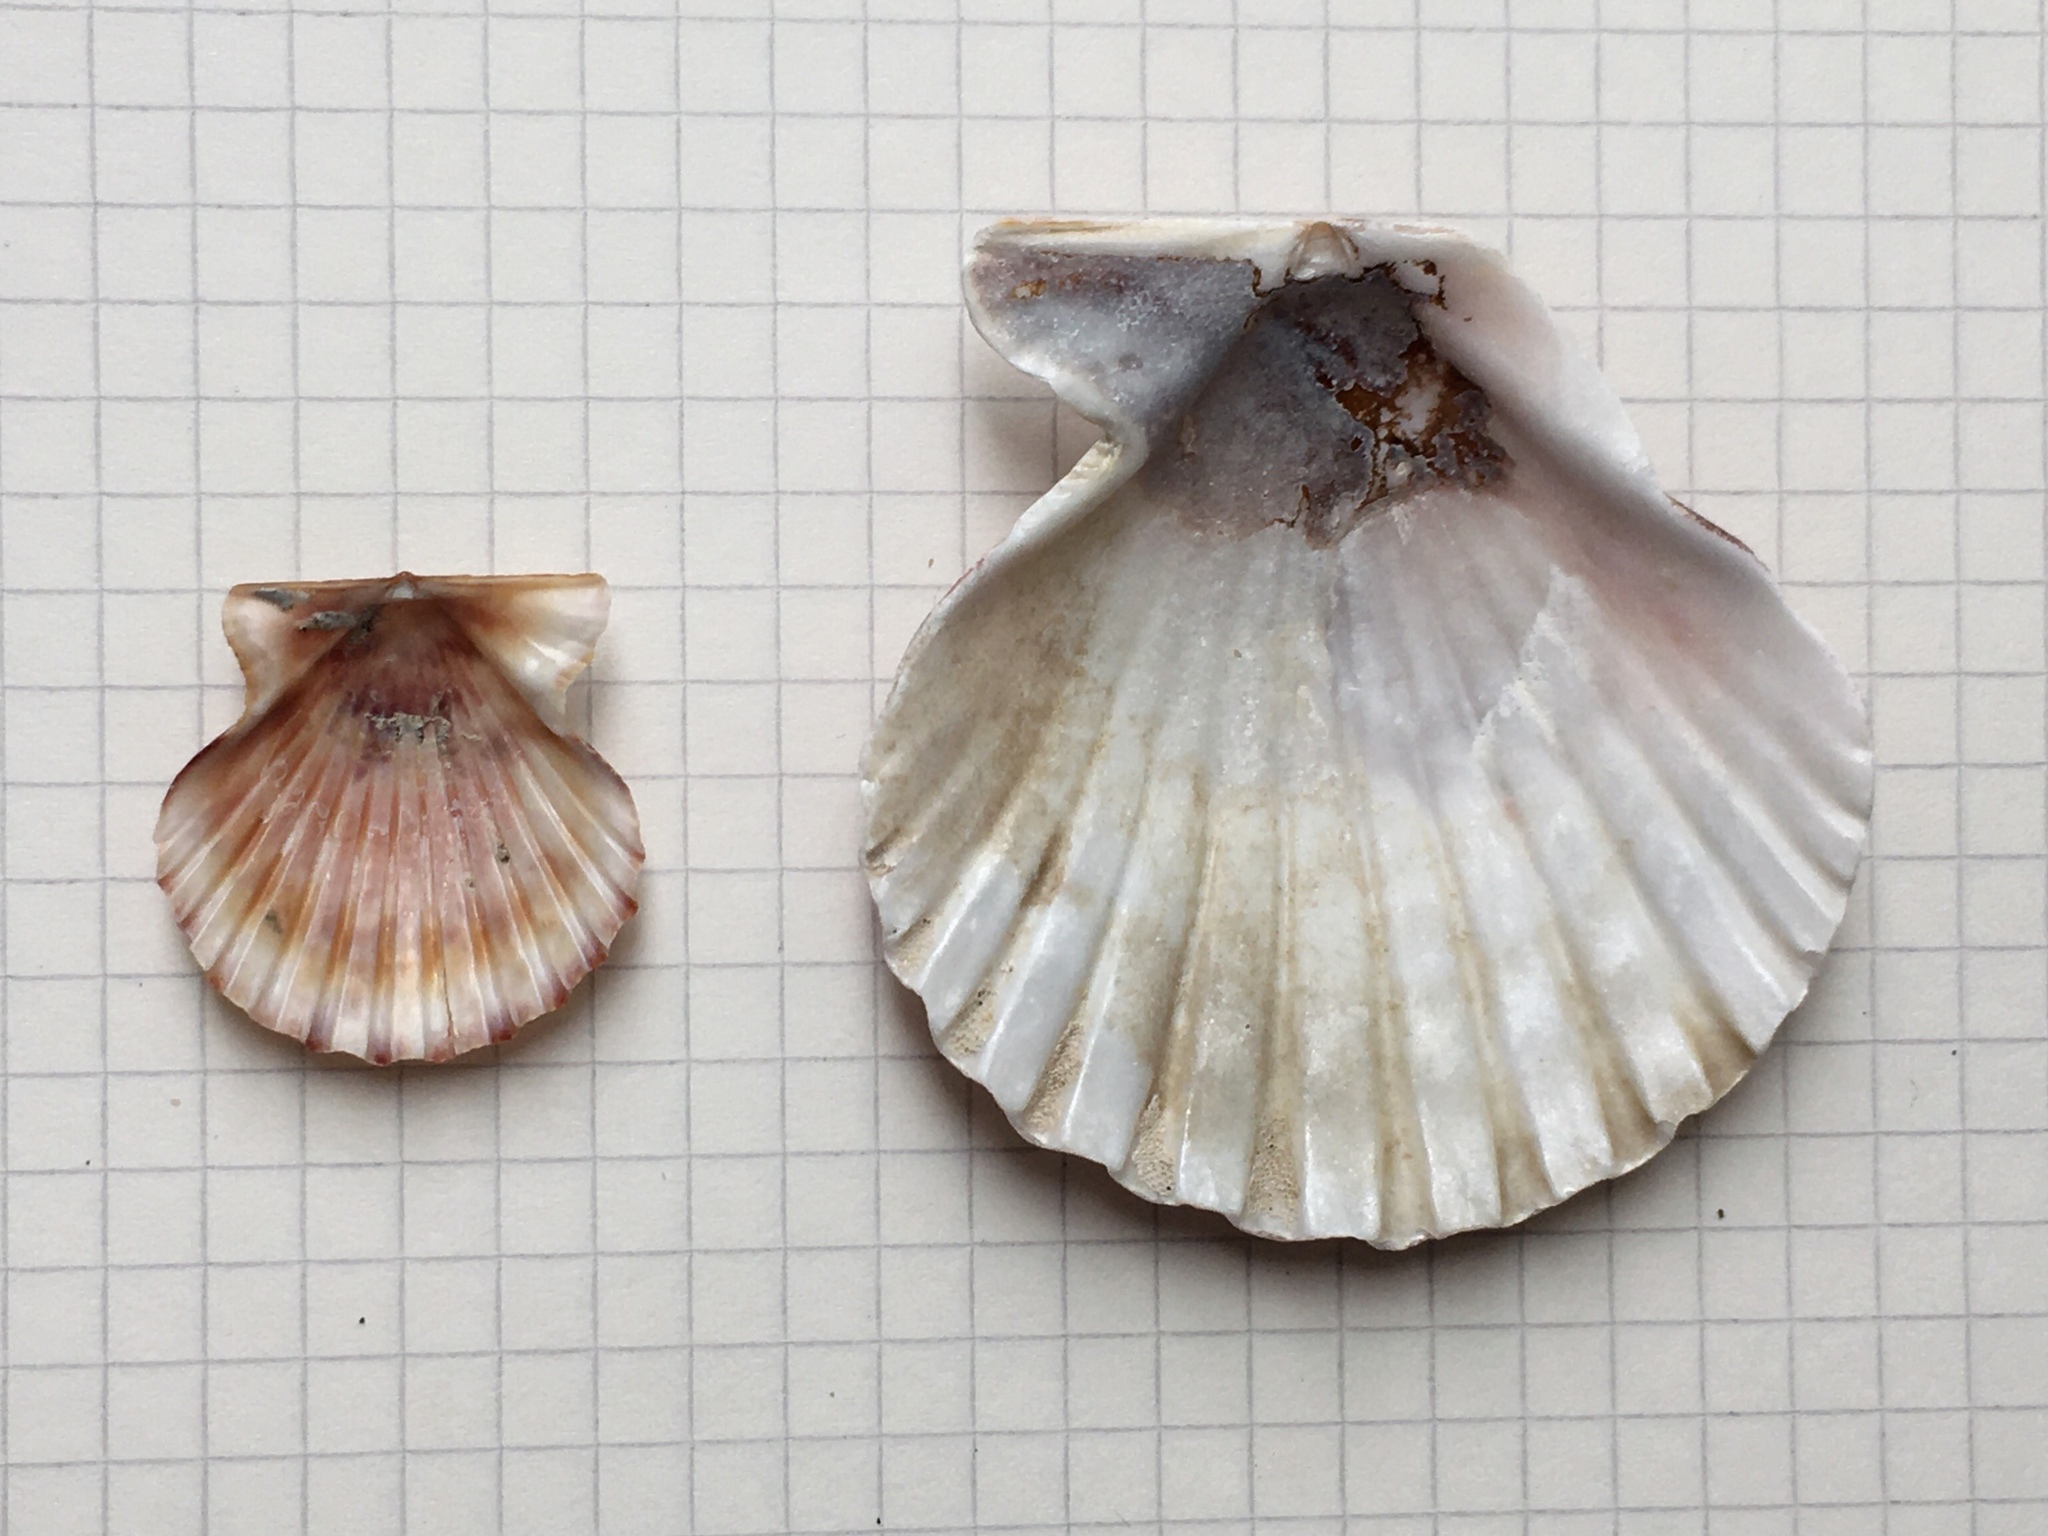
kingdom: Animalia
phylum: Mollusca
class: Bivalvia
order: Pectinida
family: Pectinidae
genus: Aequipecten
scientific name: Aequipecten tehuelchus
